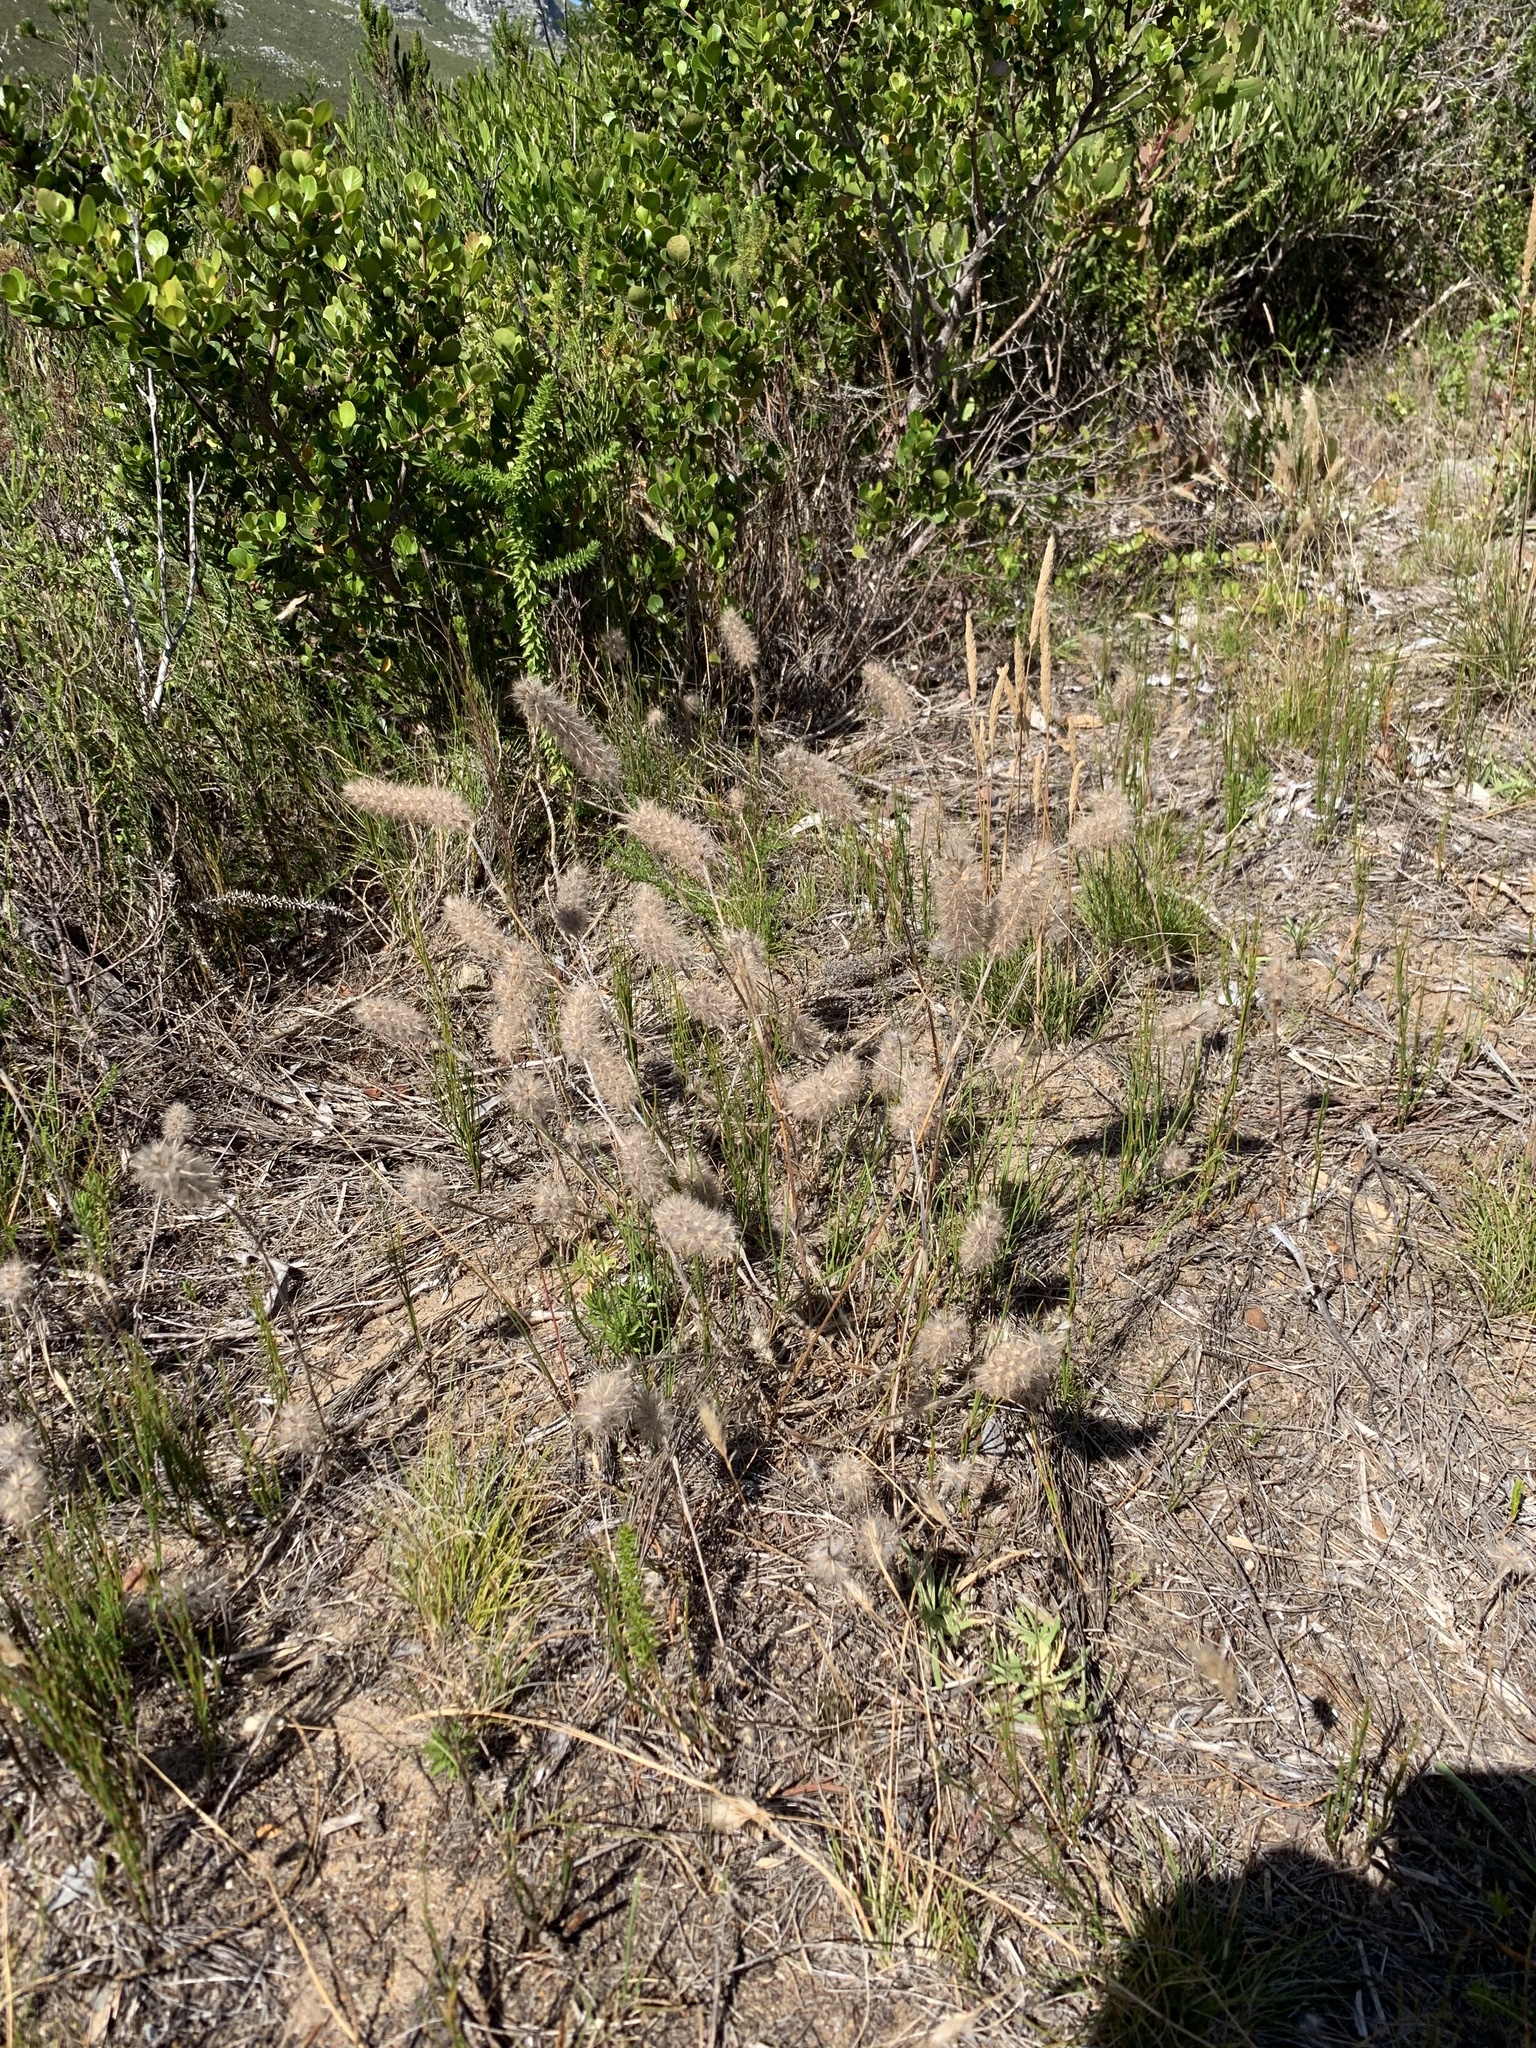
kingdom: Plantae
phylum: Tracheophyta
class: Magnoliopsida
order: Fabales
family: Fabaceae
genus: Trifolium
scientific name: Trifolium angustifolium
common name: Narrow clover
